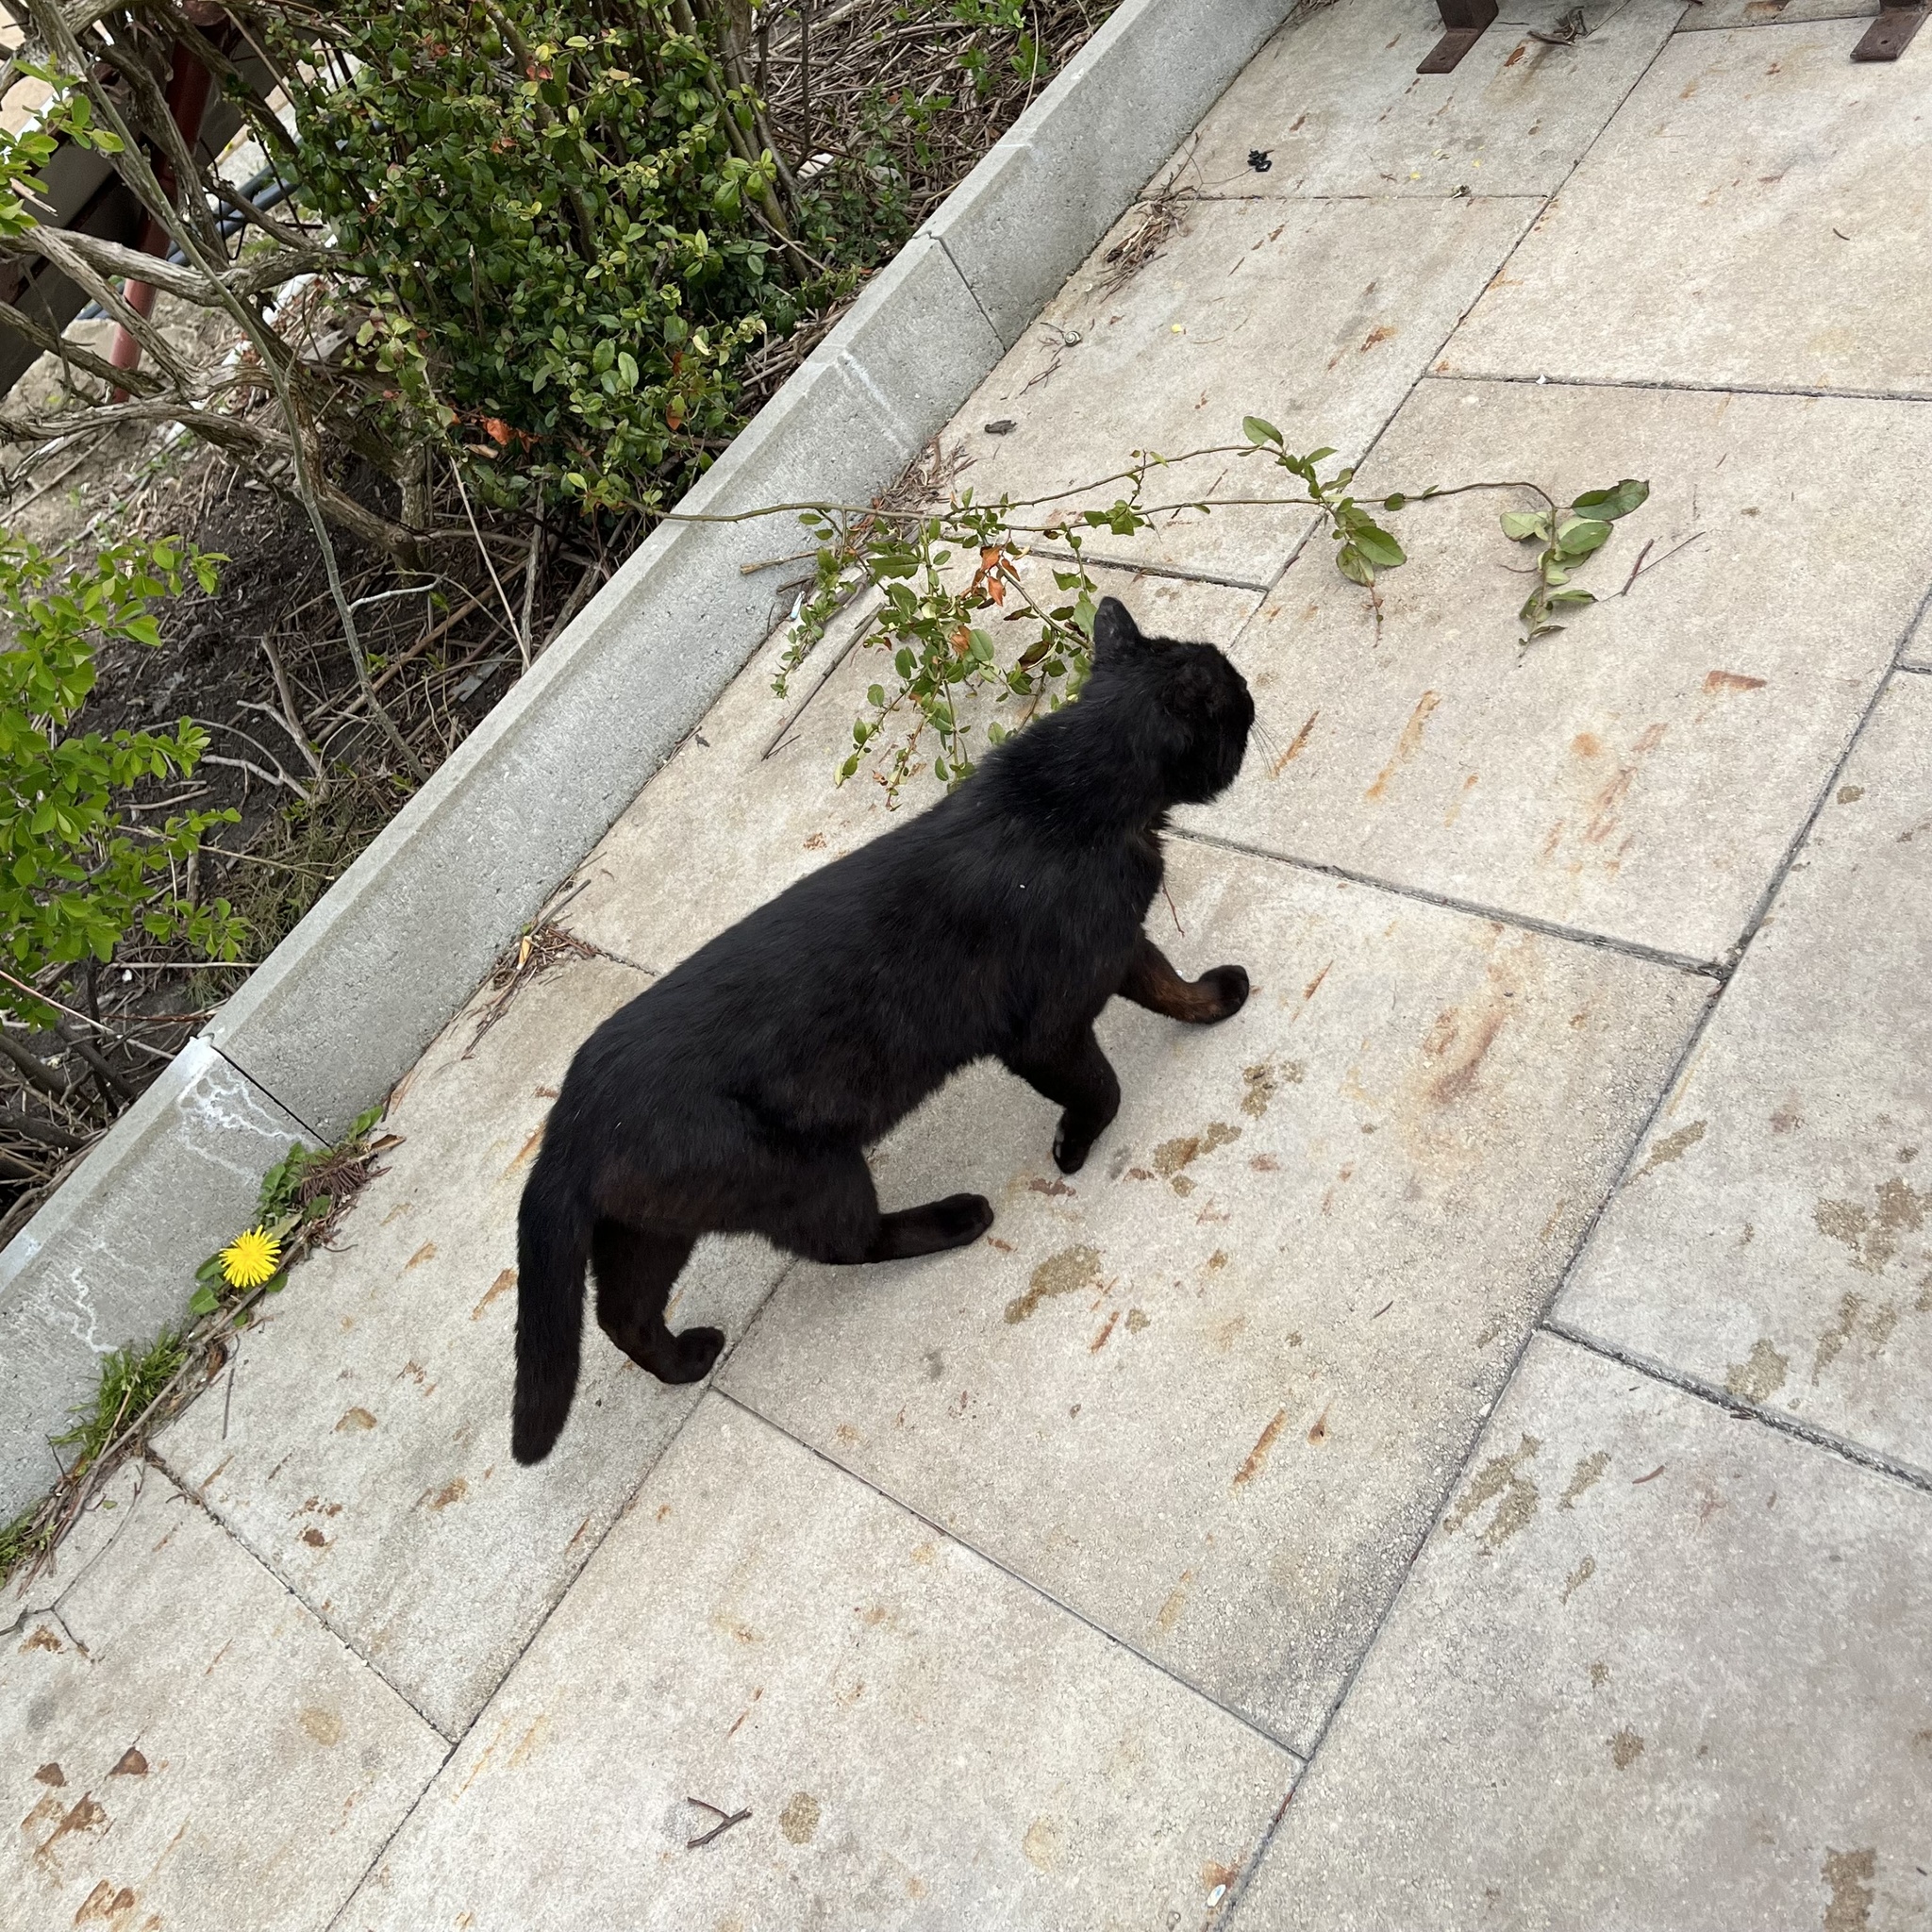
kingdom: Animalia
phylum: Chordata
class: Mammalia
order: Carnivora
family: Felidae
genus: Felis
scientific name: Felis catus
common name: Domestic cat
